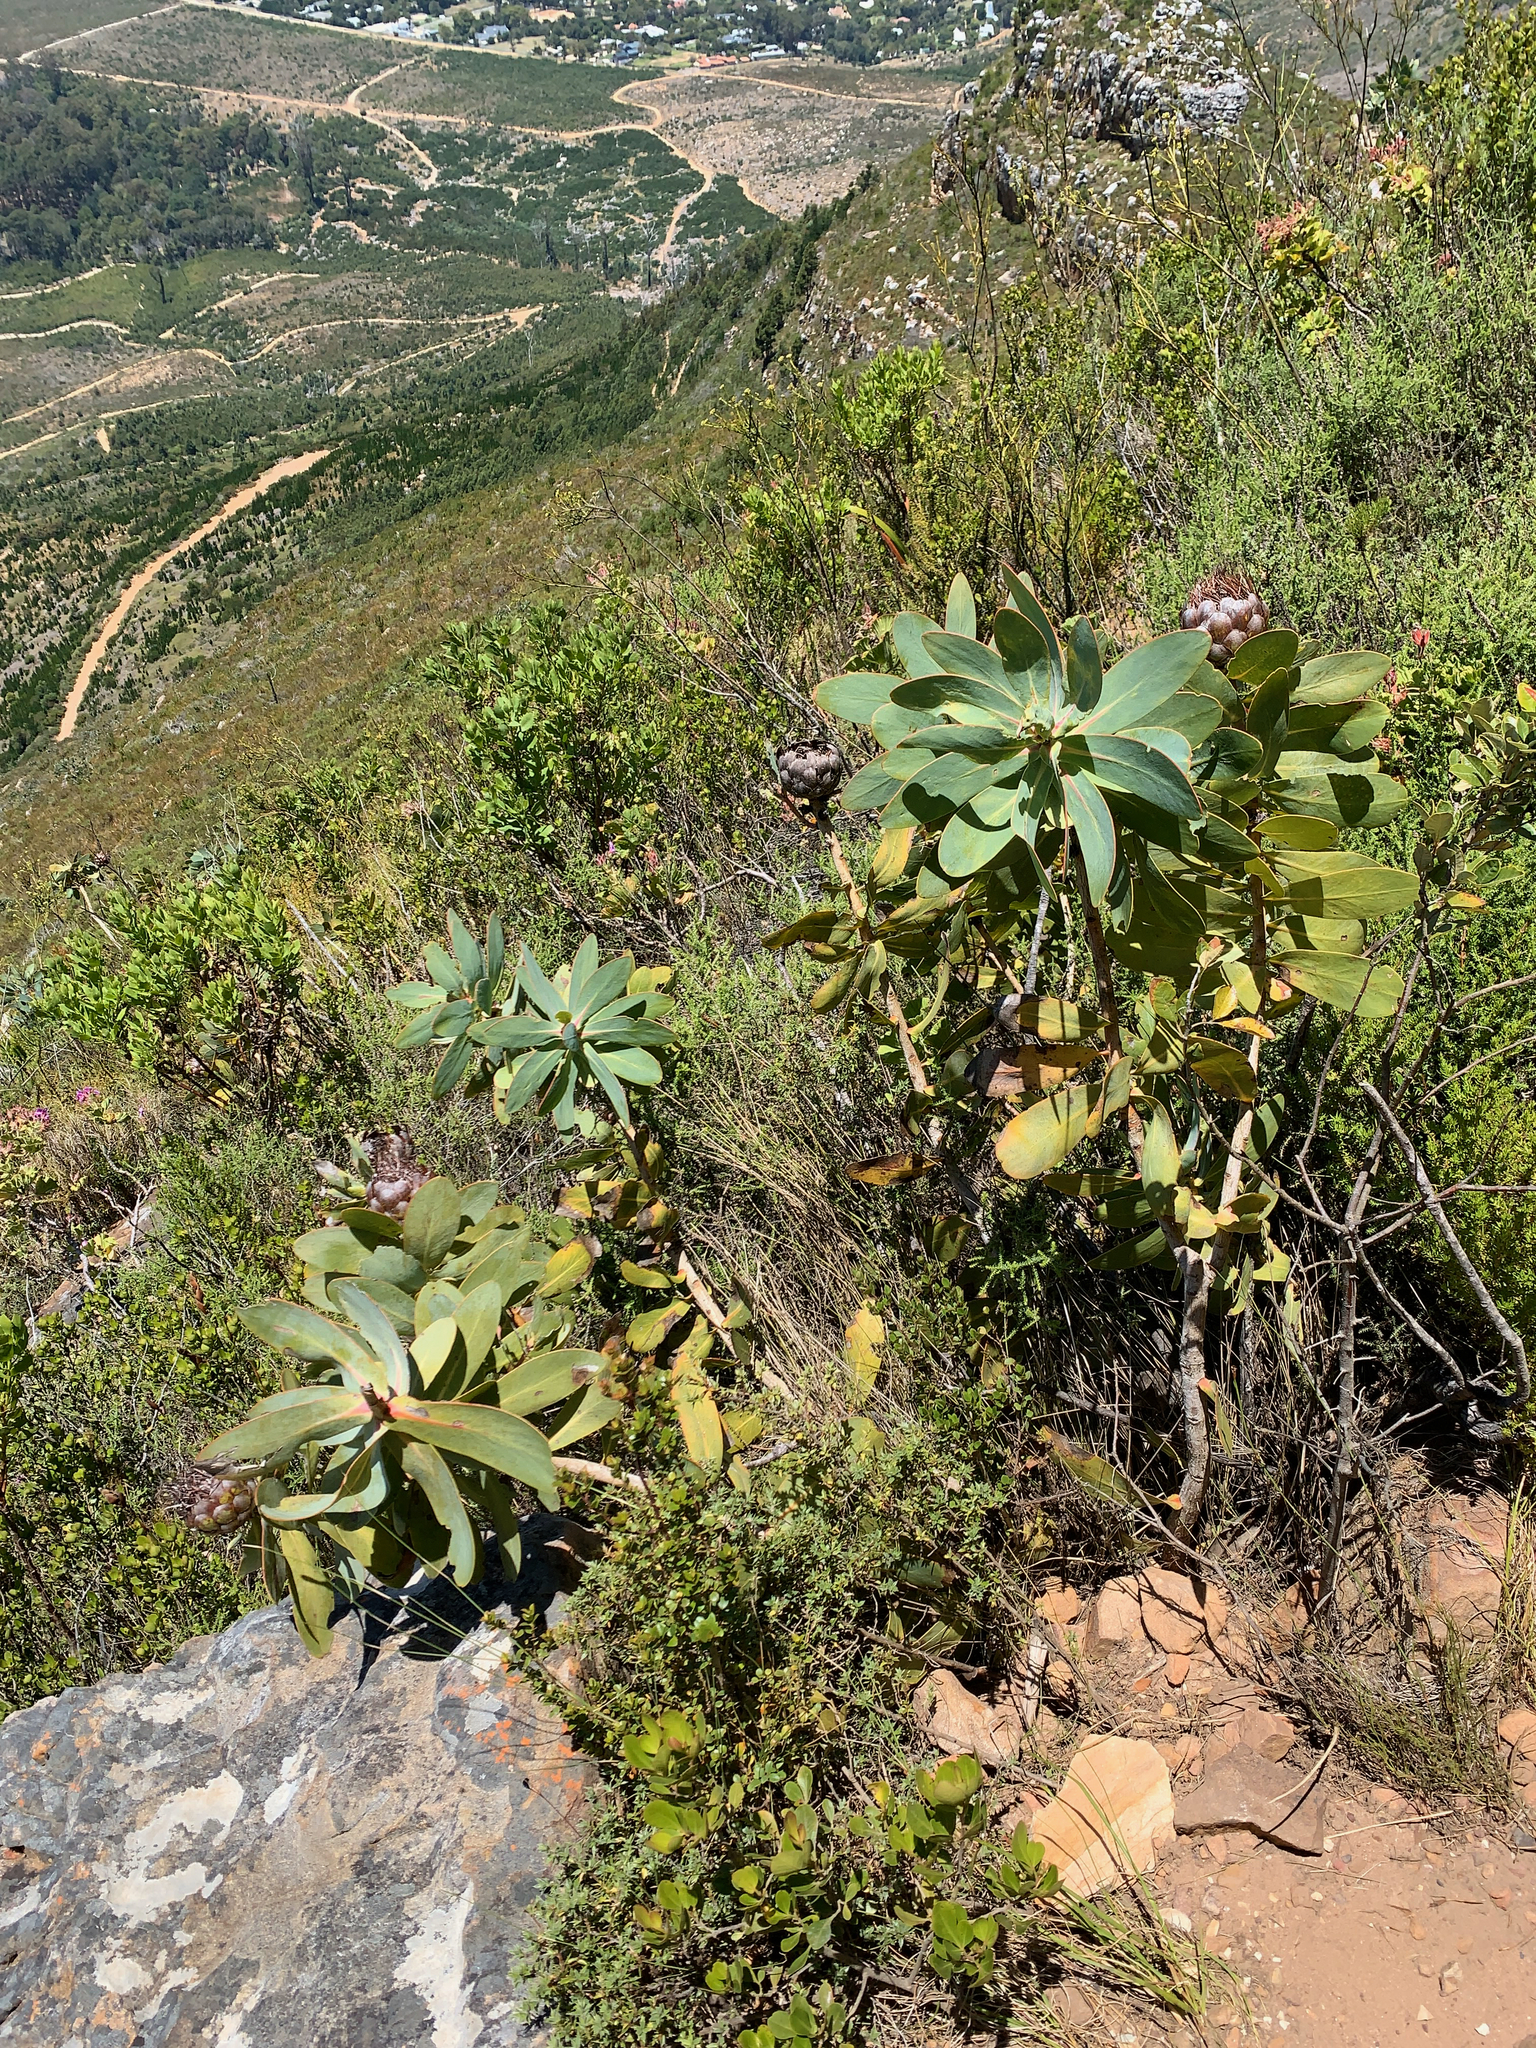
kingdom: Plantae
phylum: Tracheophyta
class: Magnoliopsida
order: Proteales
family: Proteaceae
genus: Protea
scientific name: Protea nitida
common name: Tree protea
